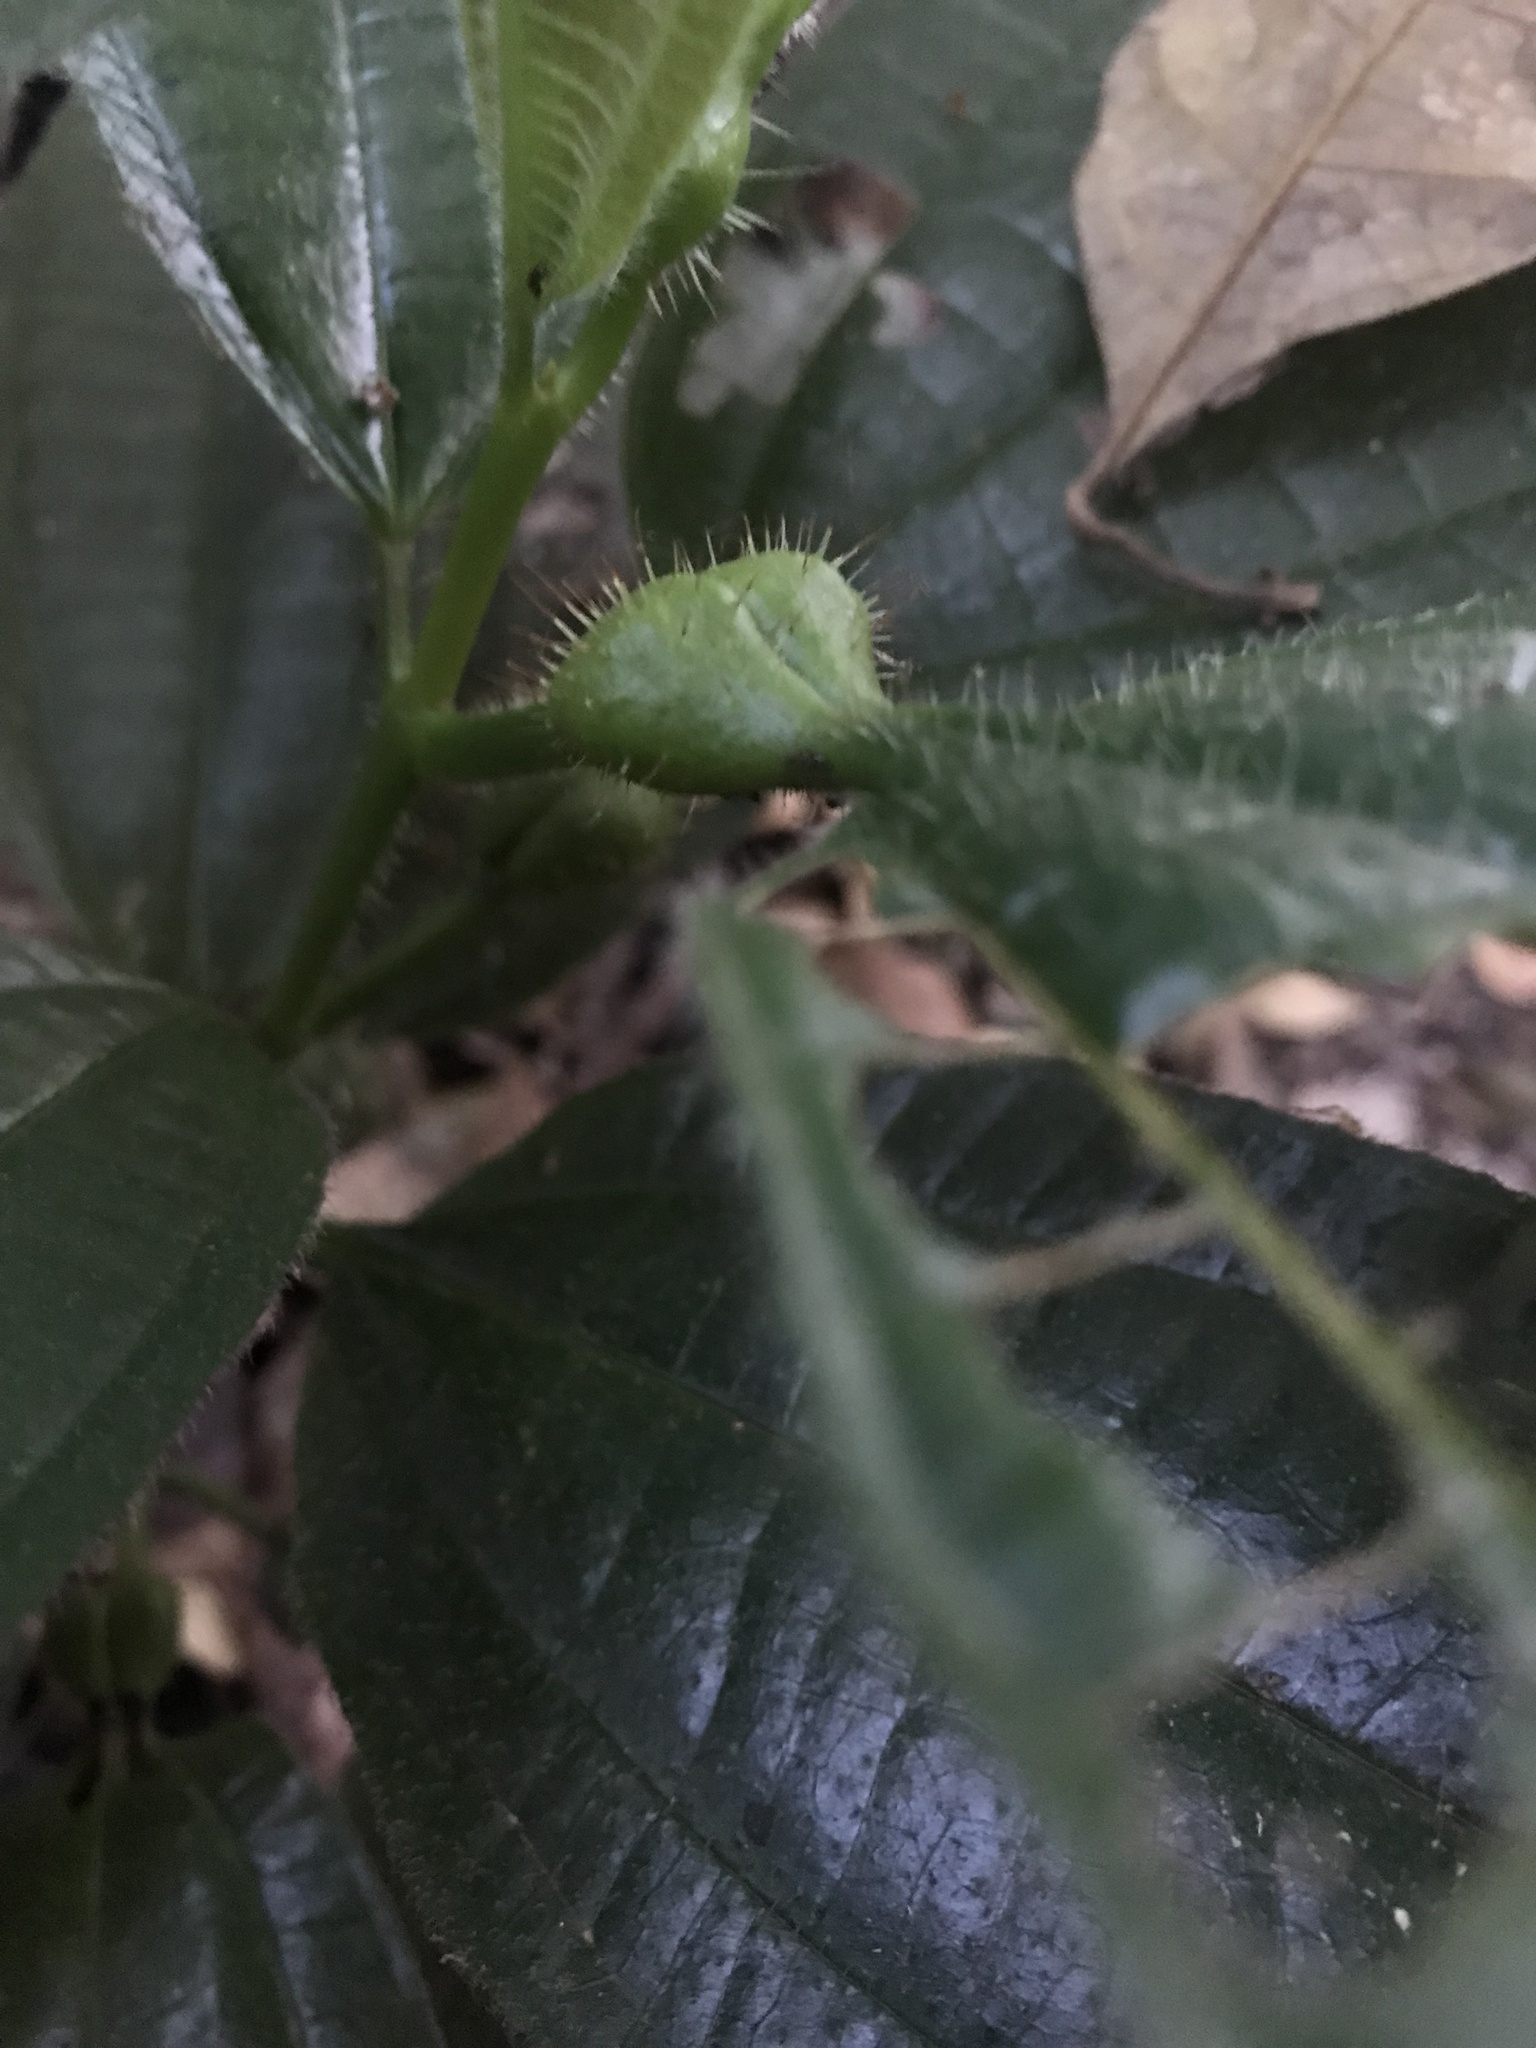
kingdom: Plantae
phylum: Tracheophyta
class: Magnoliopsida
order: Myrtales
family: Melastomataceae
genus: Miconia
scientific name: Miconia tococa
